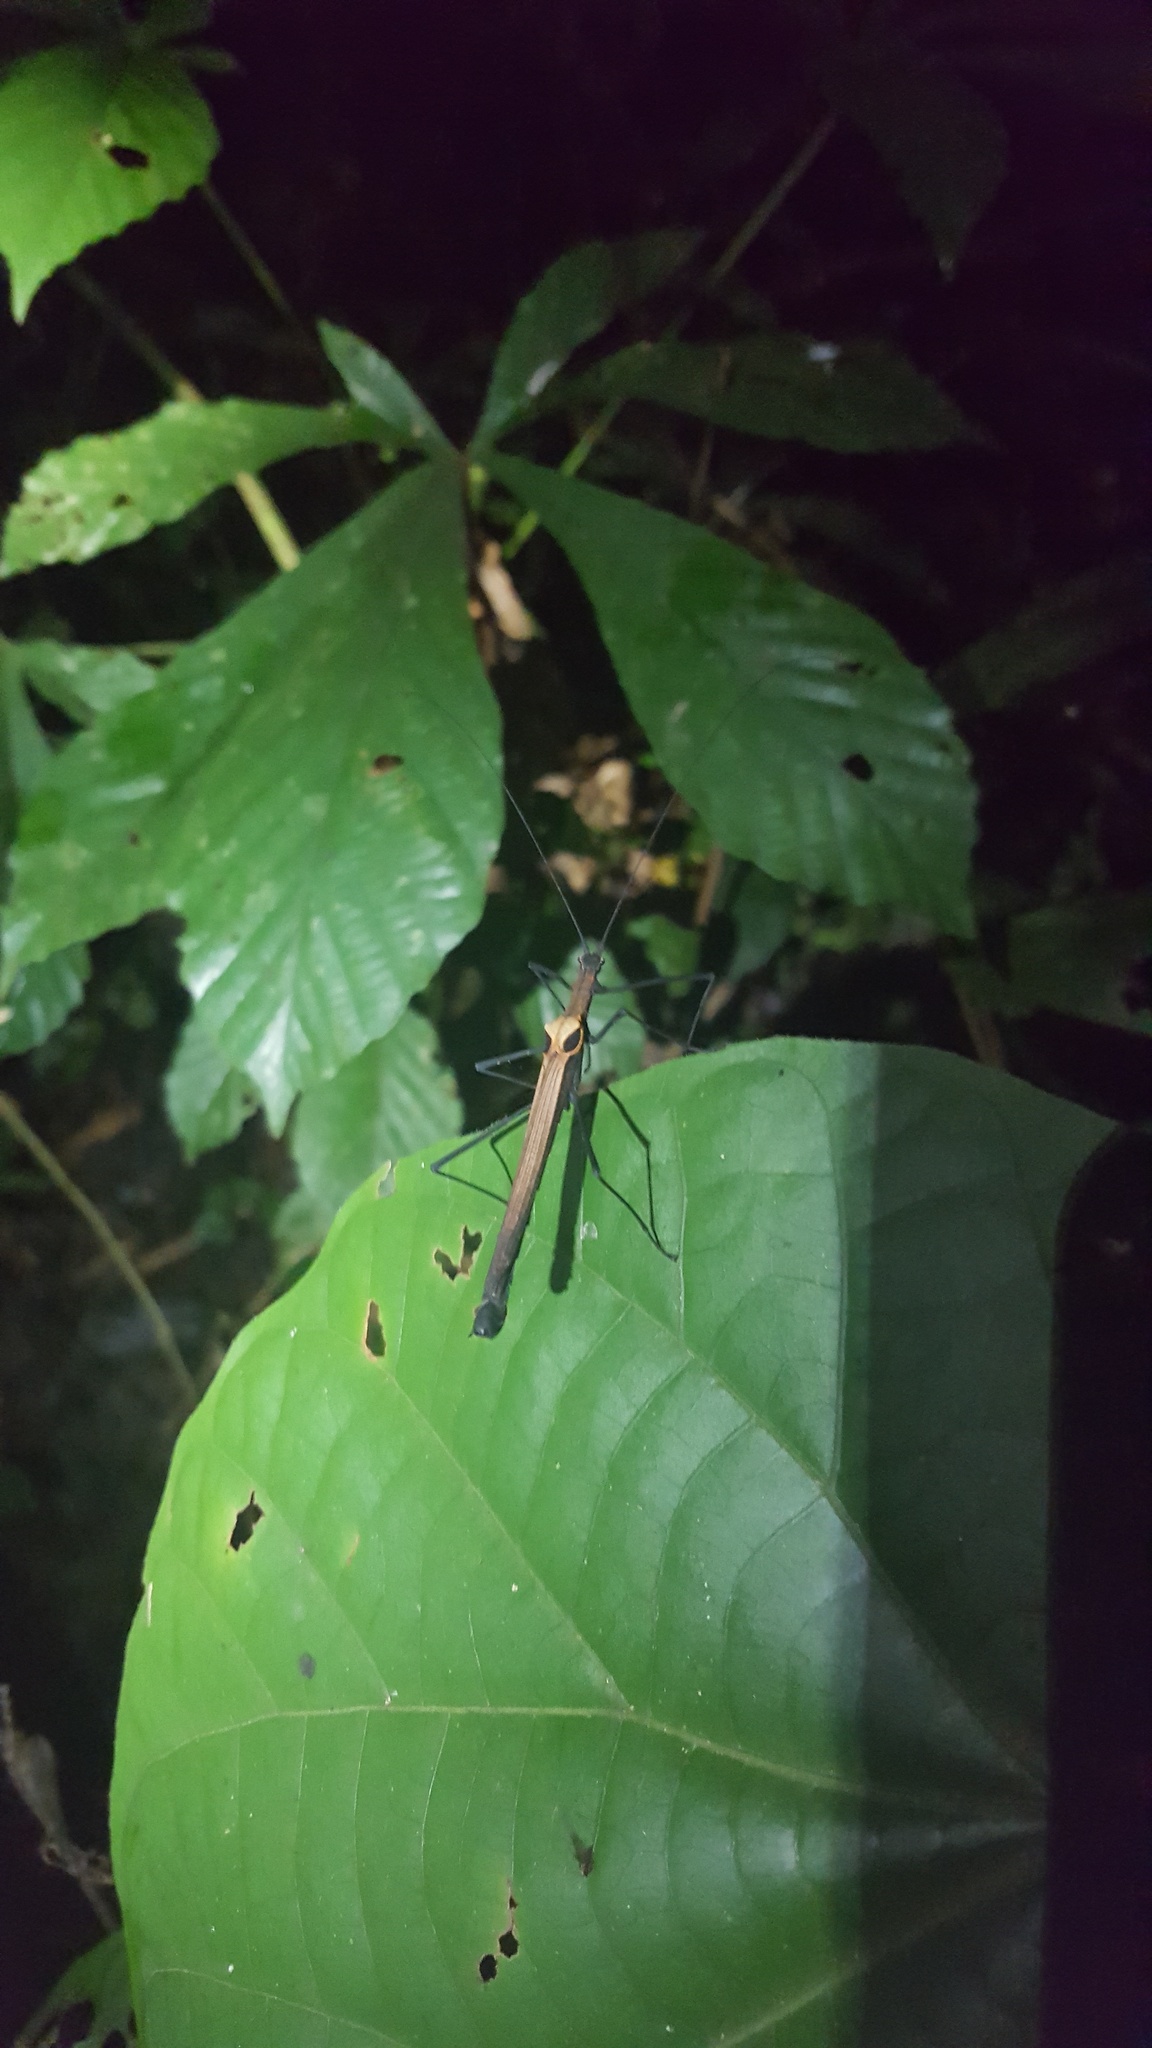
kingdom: Animalia
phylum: Arthropoda
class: Insecta
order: Phasmida
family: Pseudophasmatidae
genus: Pseudophasma
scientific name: Pseudophasma scabriusculum
